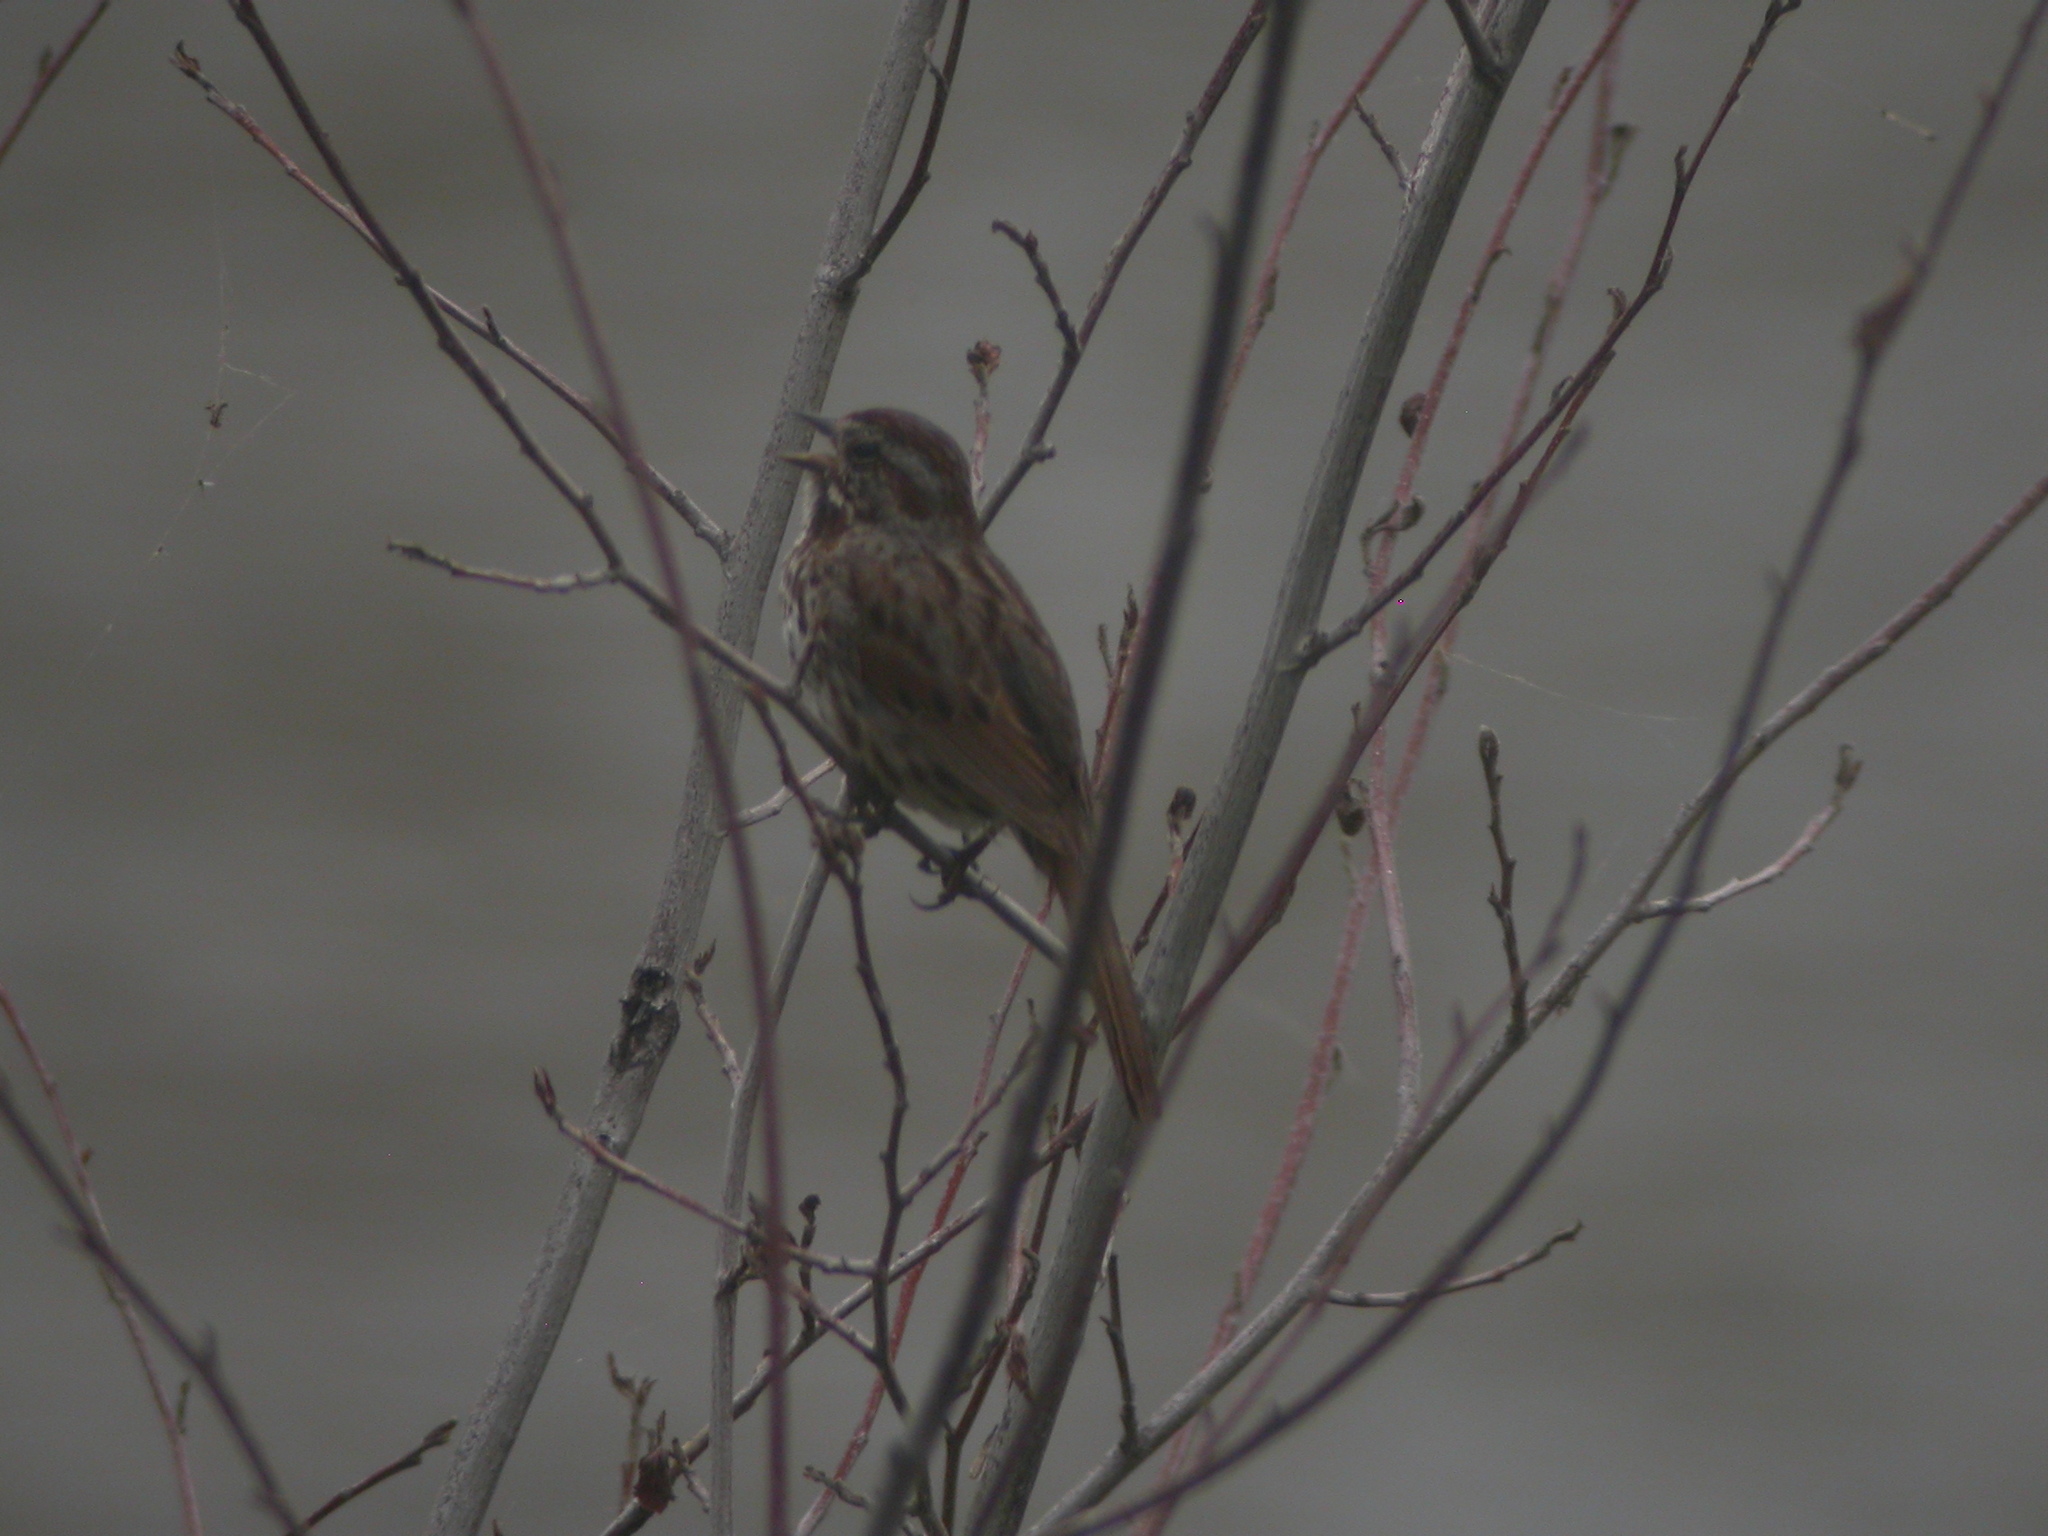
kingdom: Animalia
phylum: Chordata
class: Aves
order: Passeriformes
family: Passerellidae
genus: Melospiza
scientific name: Melospiza melodia
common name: Song sparrow
